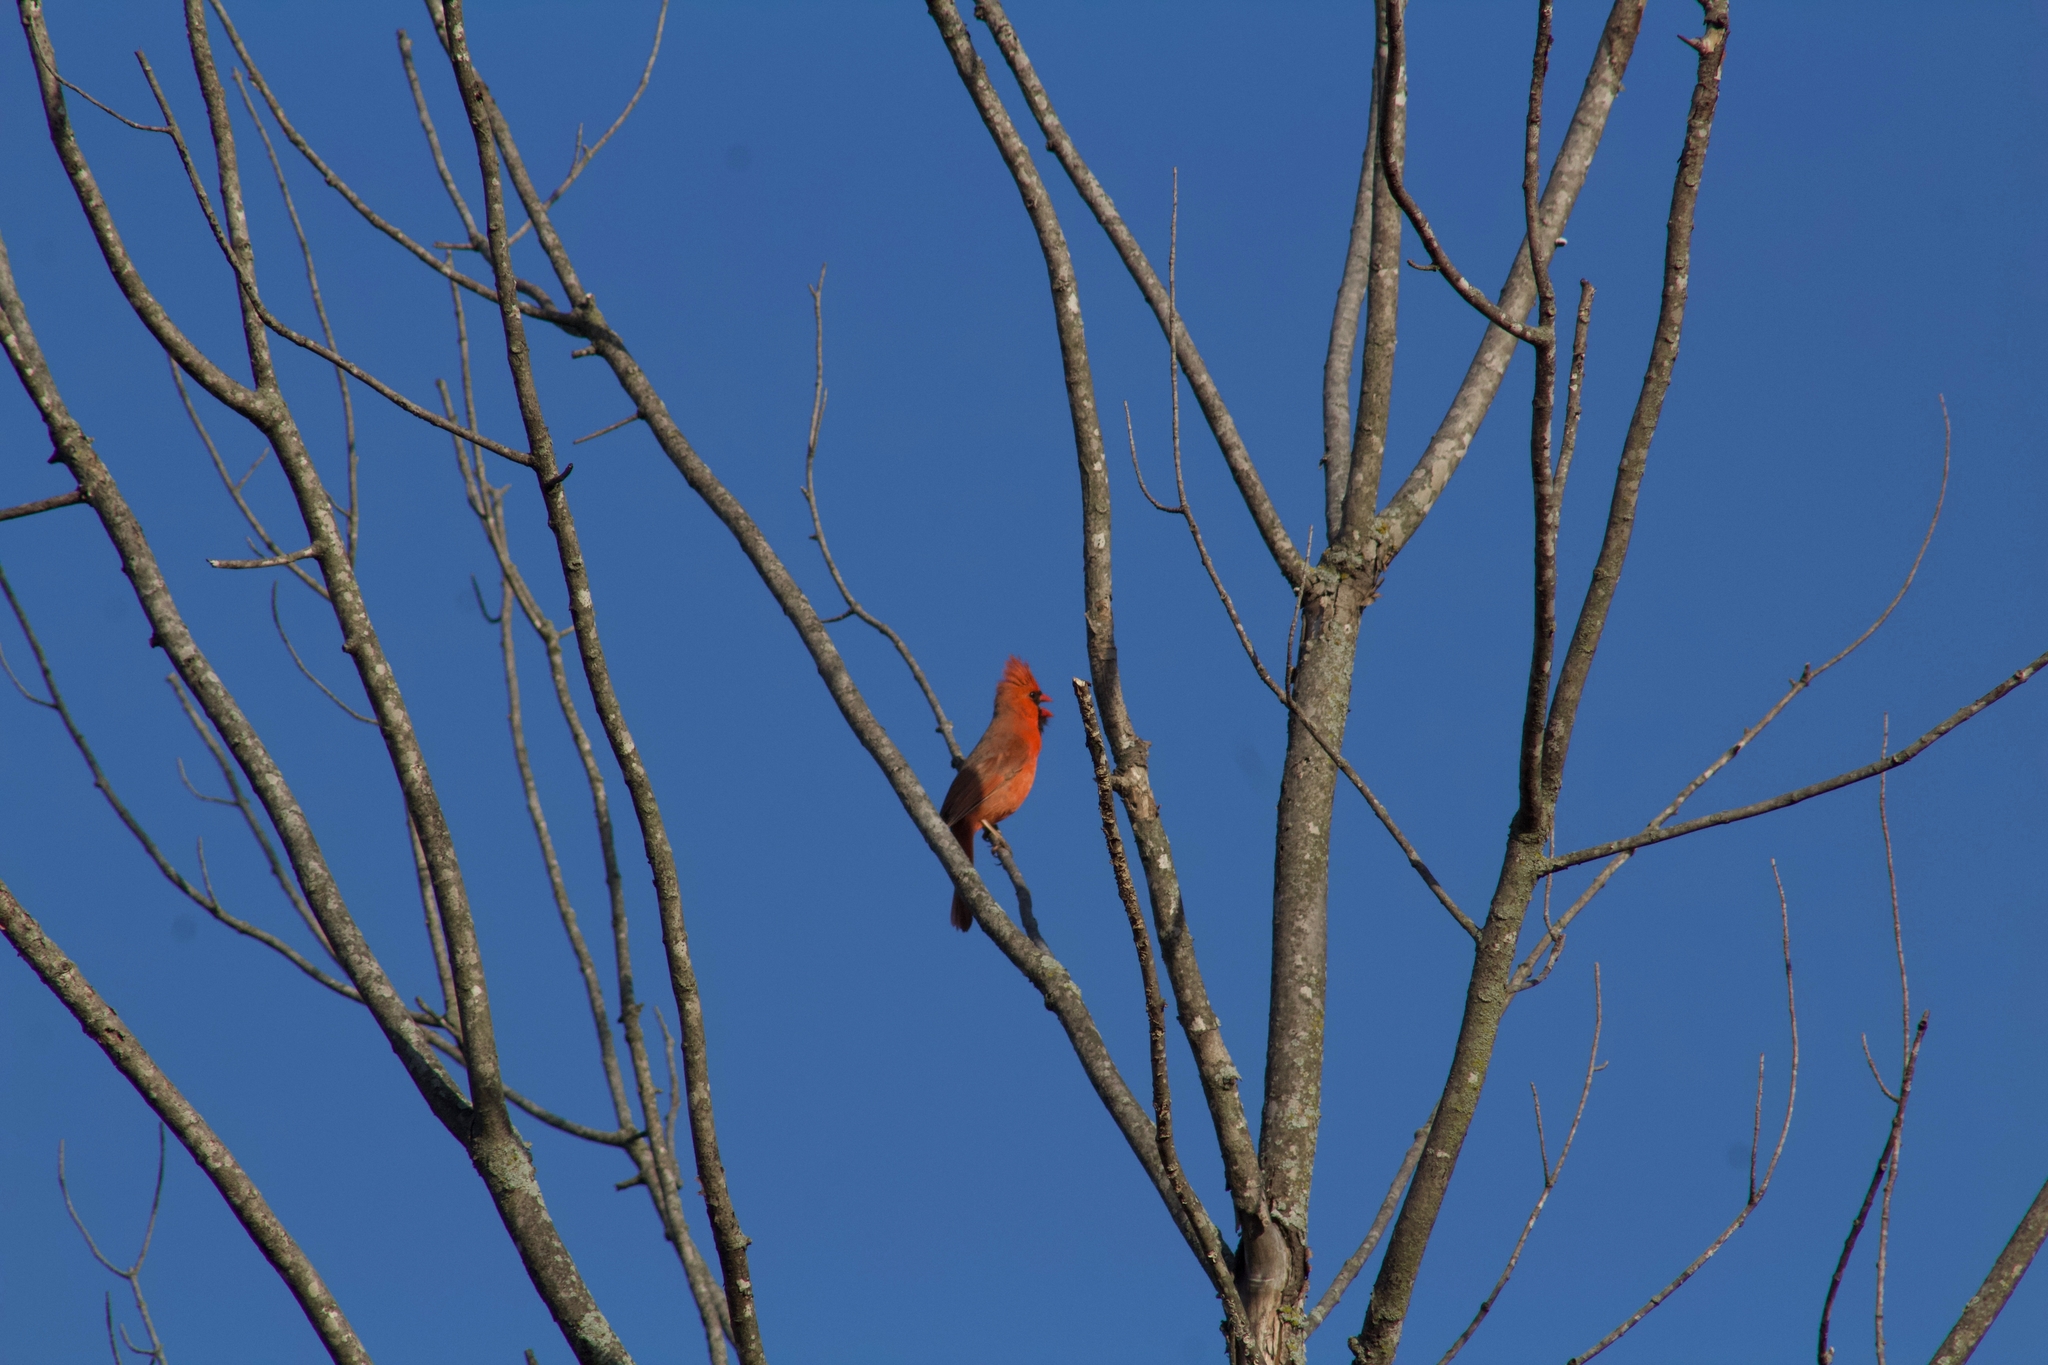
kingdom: Animalia
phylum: Chordata
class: Aves
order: Passeriformes
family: Cardinalidae
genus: Cardinalis
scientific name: Cardinalis cardinalis
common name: Northern cardinal
